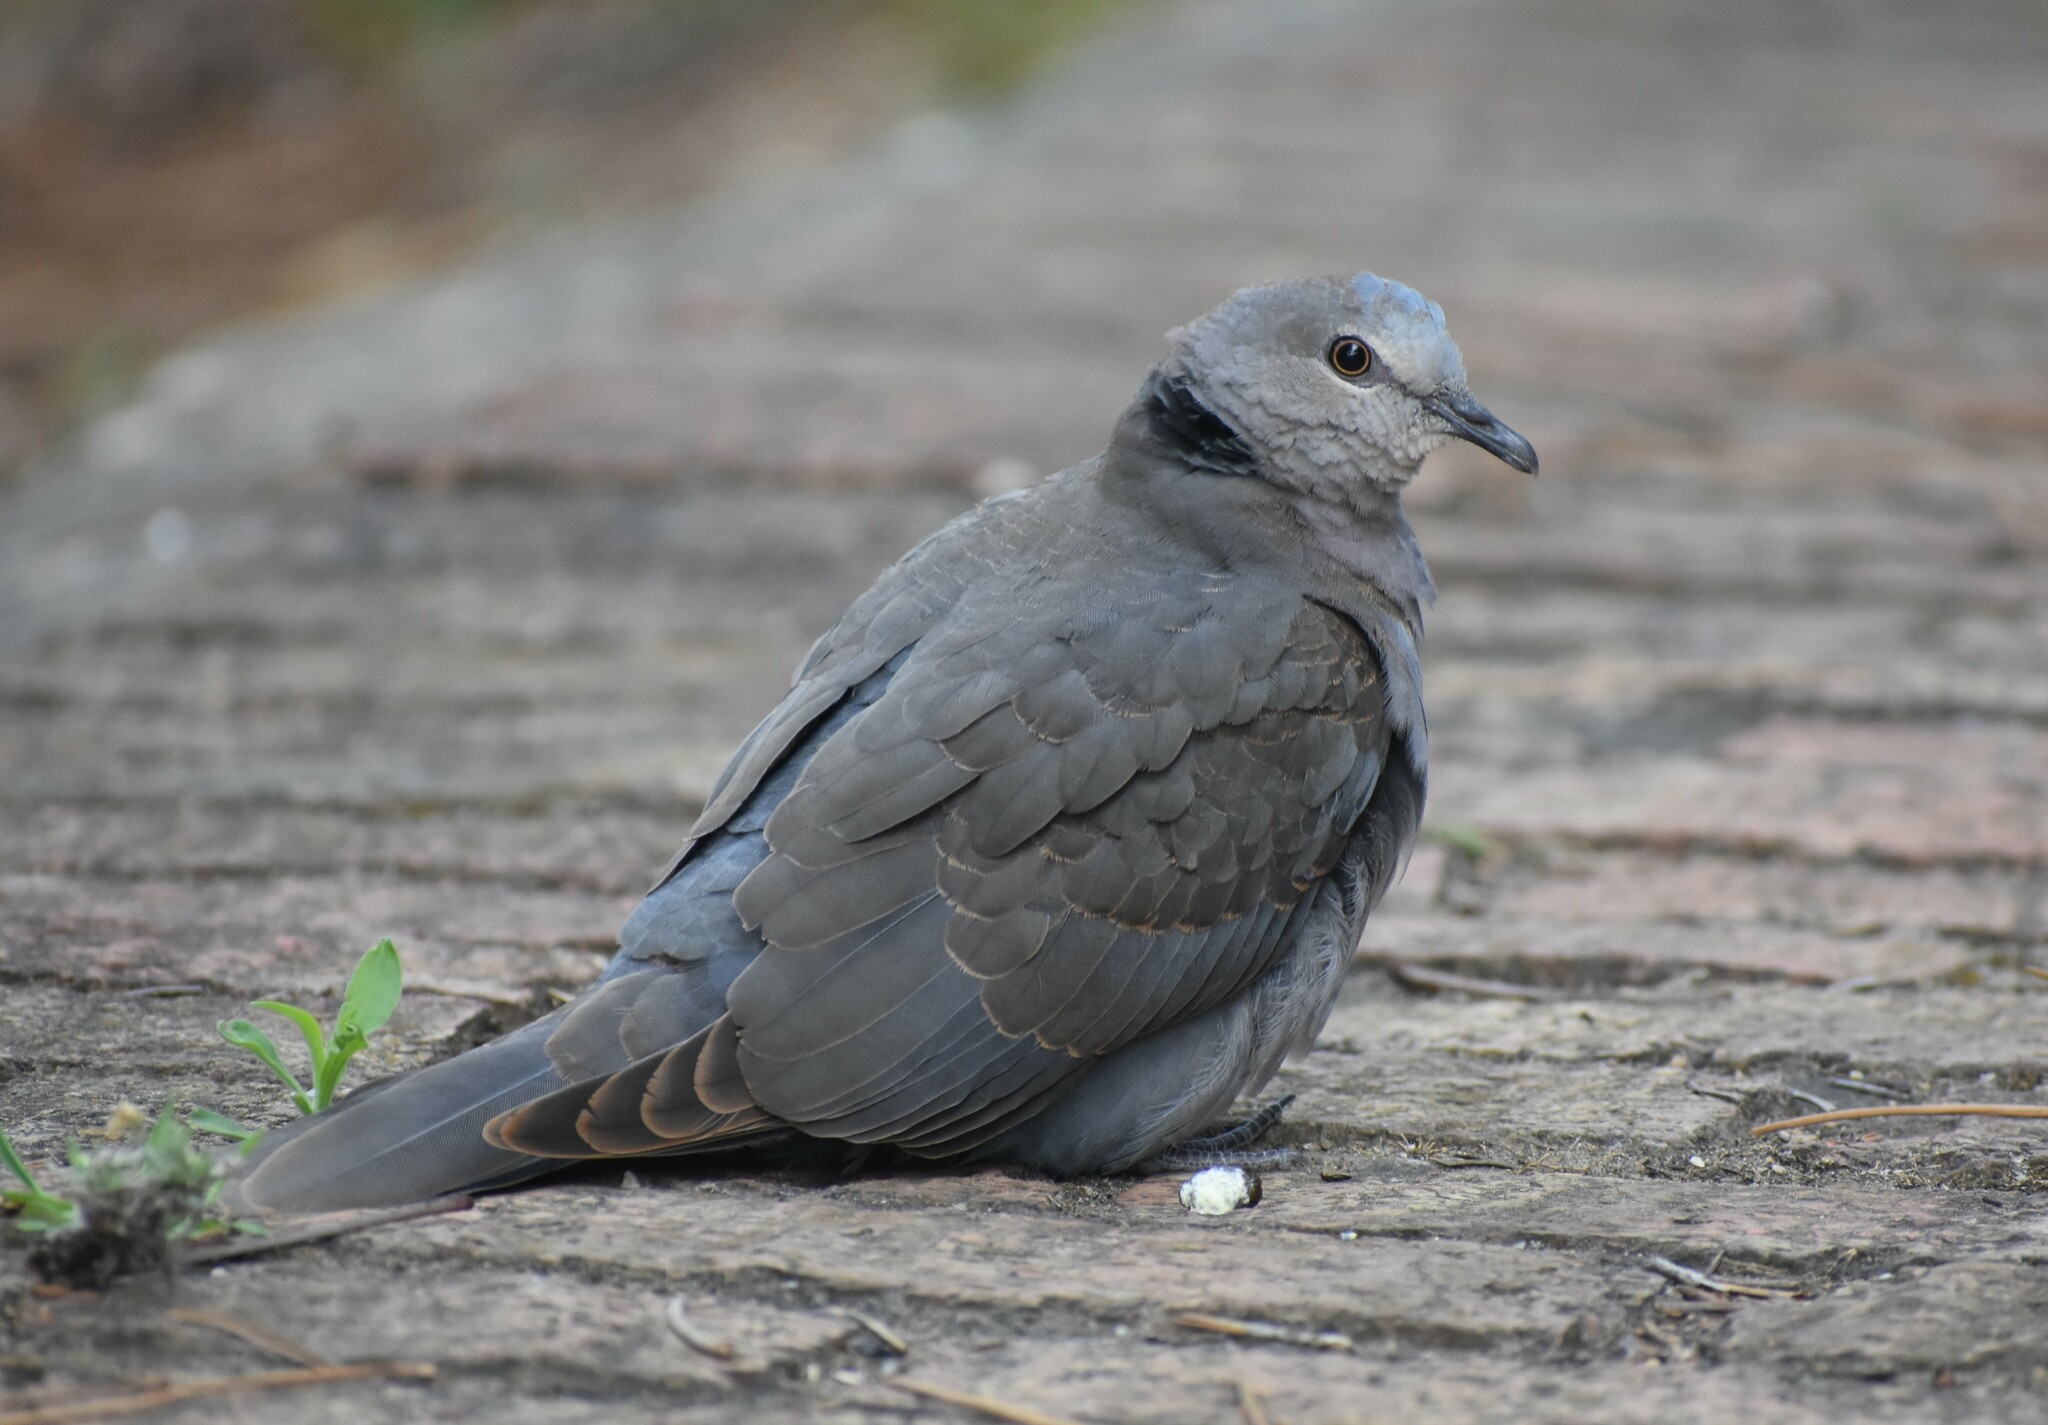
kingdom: Animalia
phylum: Chordata
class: Aves
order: Columbiformes
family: Columbidae
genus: Streptopelia
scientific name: Streptopelia semitorquata
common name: Red-eyed dove
